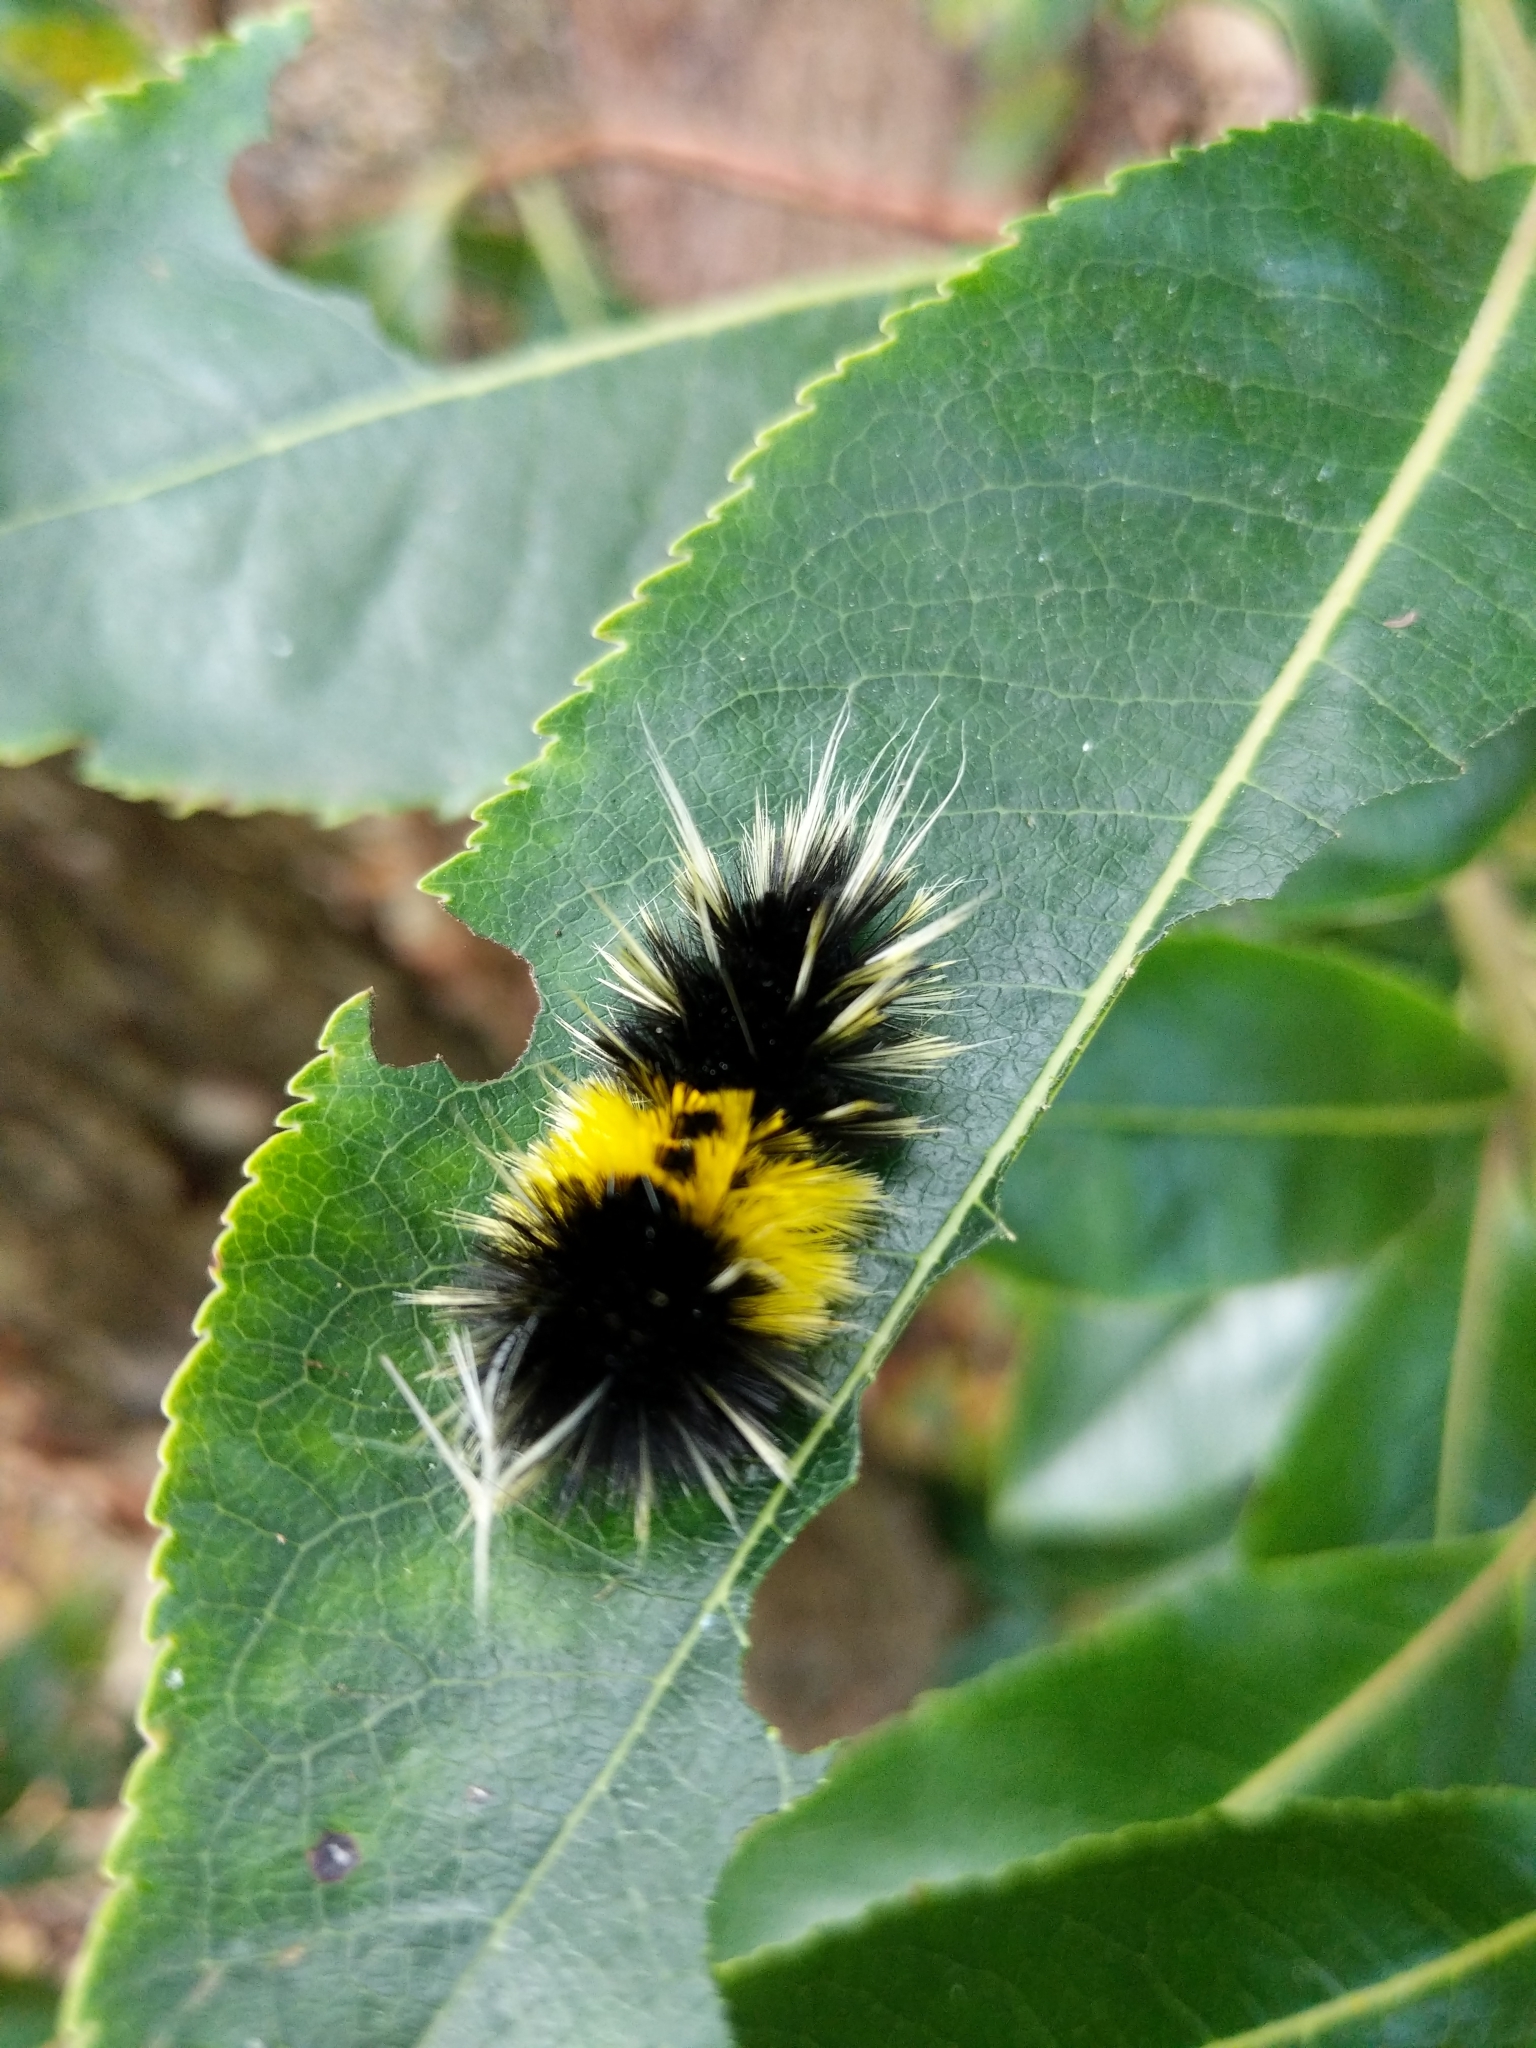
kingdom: Animalia
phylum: Arthropoda
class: Insecta
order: Lepidoptera
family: Erebidae
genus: Lophocampa
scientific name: Lophocampa maculata
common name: Spotted tussock moth
